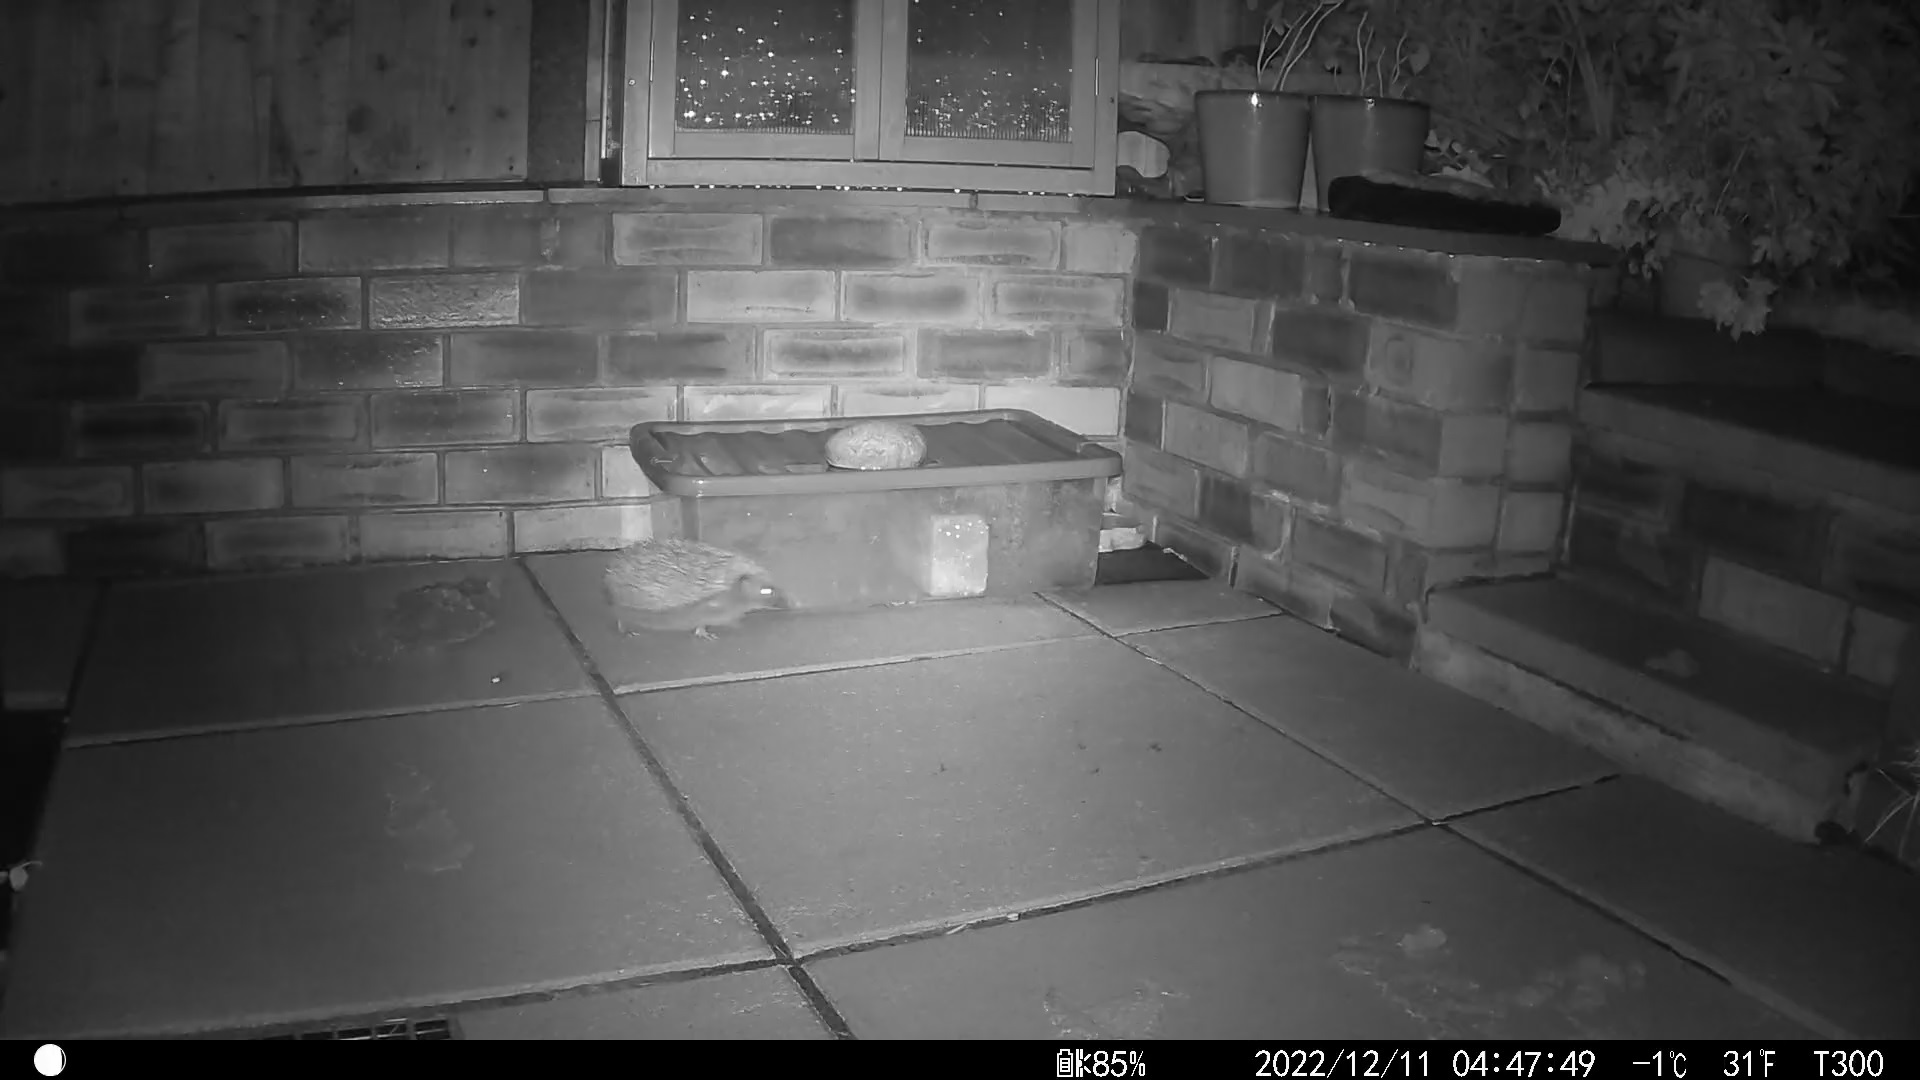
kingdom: Animalia
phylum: Chordata
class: Mammalia
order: Erinaceomorpha
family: Erinaceidae
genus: Erinaceus
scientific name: Erinaceus europaeus
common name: West european hedgehog
